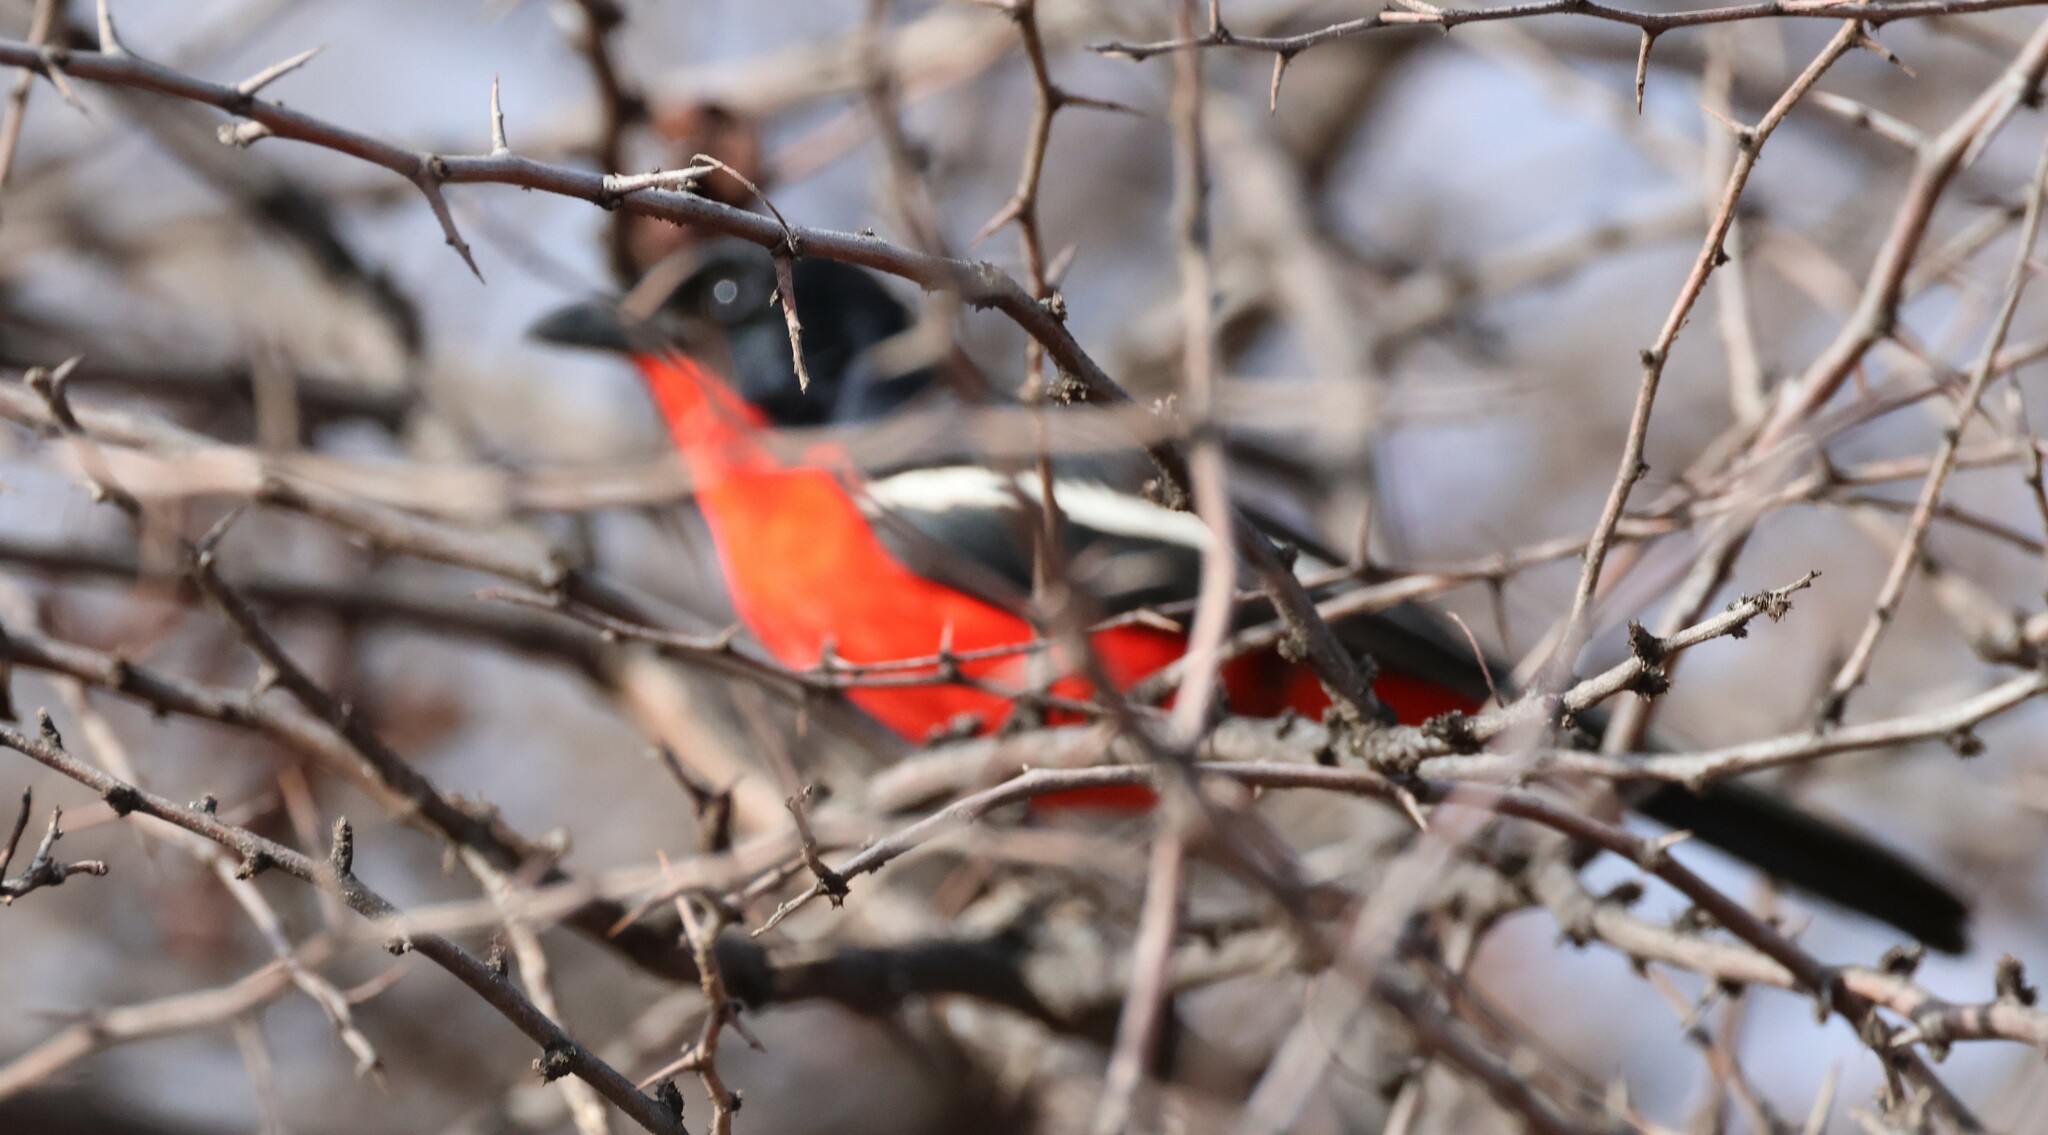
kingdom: Animalia
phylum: Chordata
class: Aves
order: Passeriformes
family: Malaconotidae
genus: Laniarius
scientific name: Laniarius atrococcineus
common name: Crimson-breasted shrike
